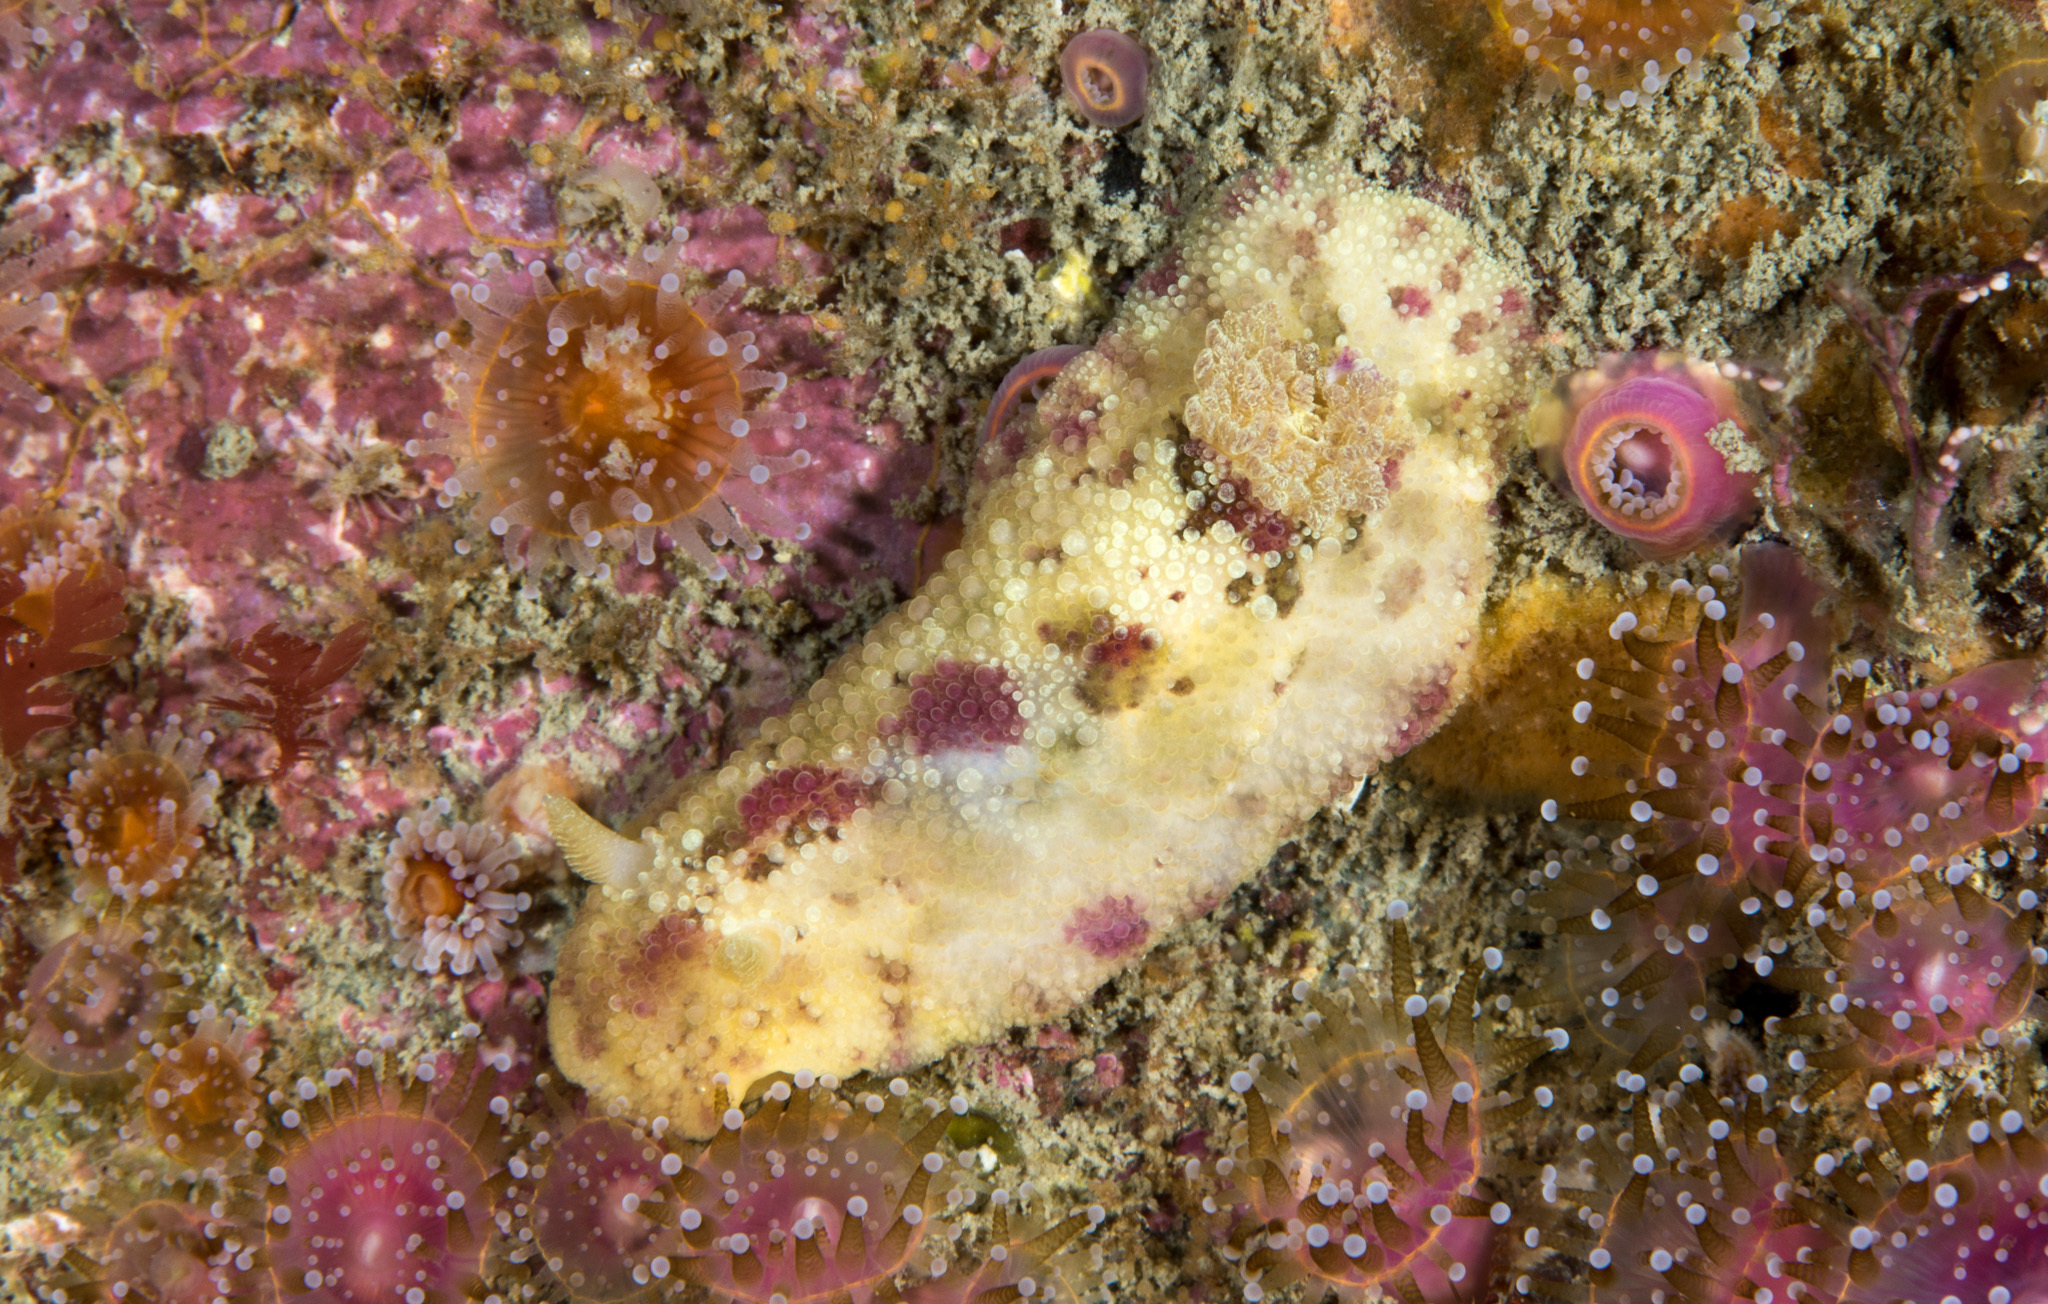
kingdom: Animalia
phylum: Mollusca
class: Gastropoda
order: Nudibranchia
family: Dorididae
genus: Doris
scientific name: Doris pseudoargus
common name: Sea lemon
